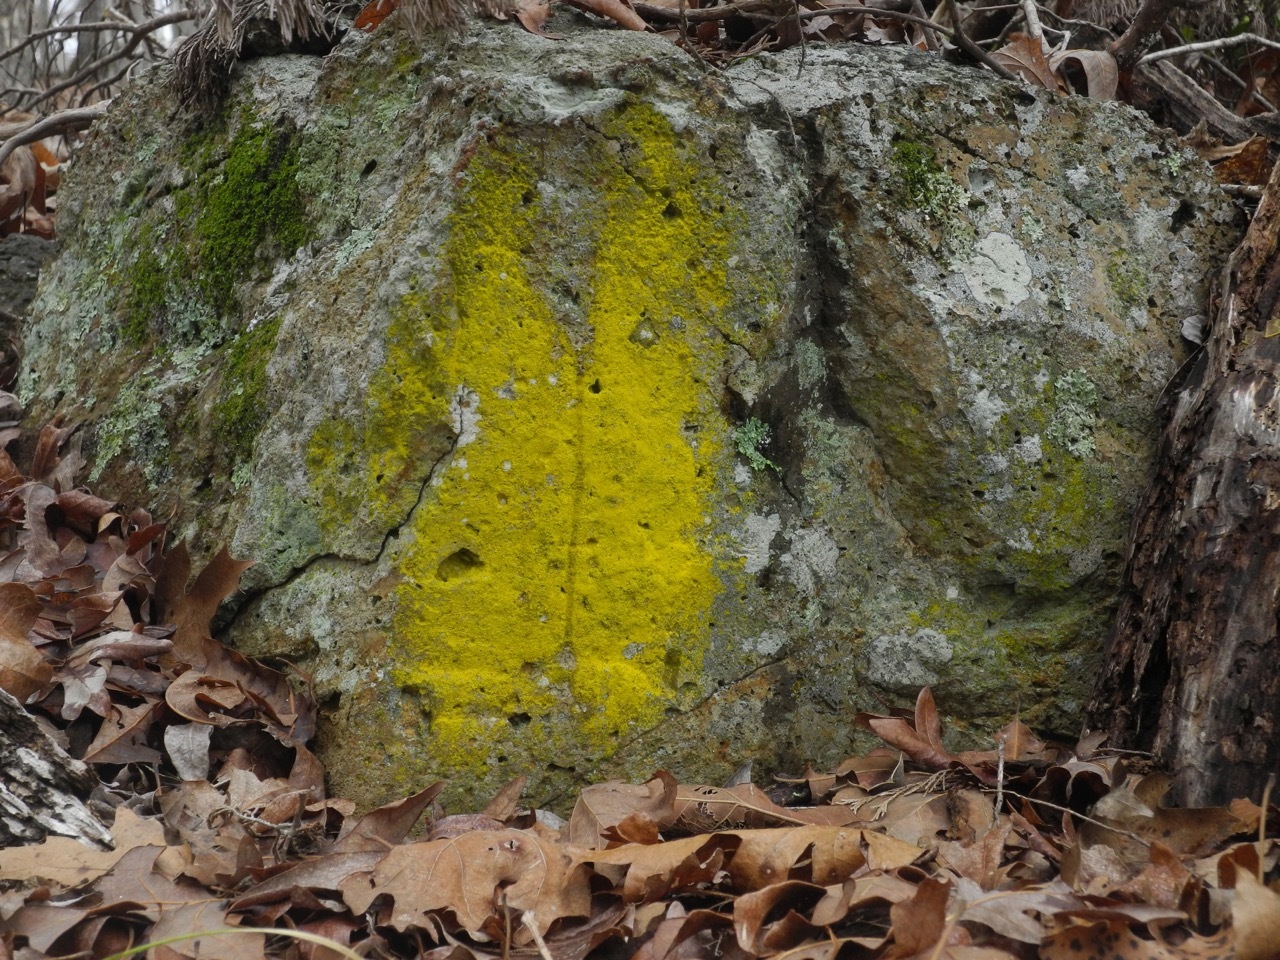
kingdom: Fungi
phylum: Ascomycota
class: Arthoniomycetes
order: Arthoniales
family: Chrysotrichaceae
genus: Chrysothrix
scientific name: Chrysothrix candelaris
